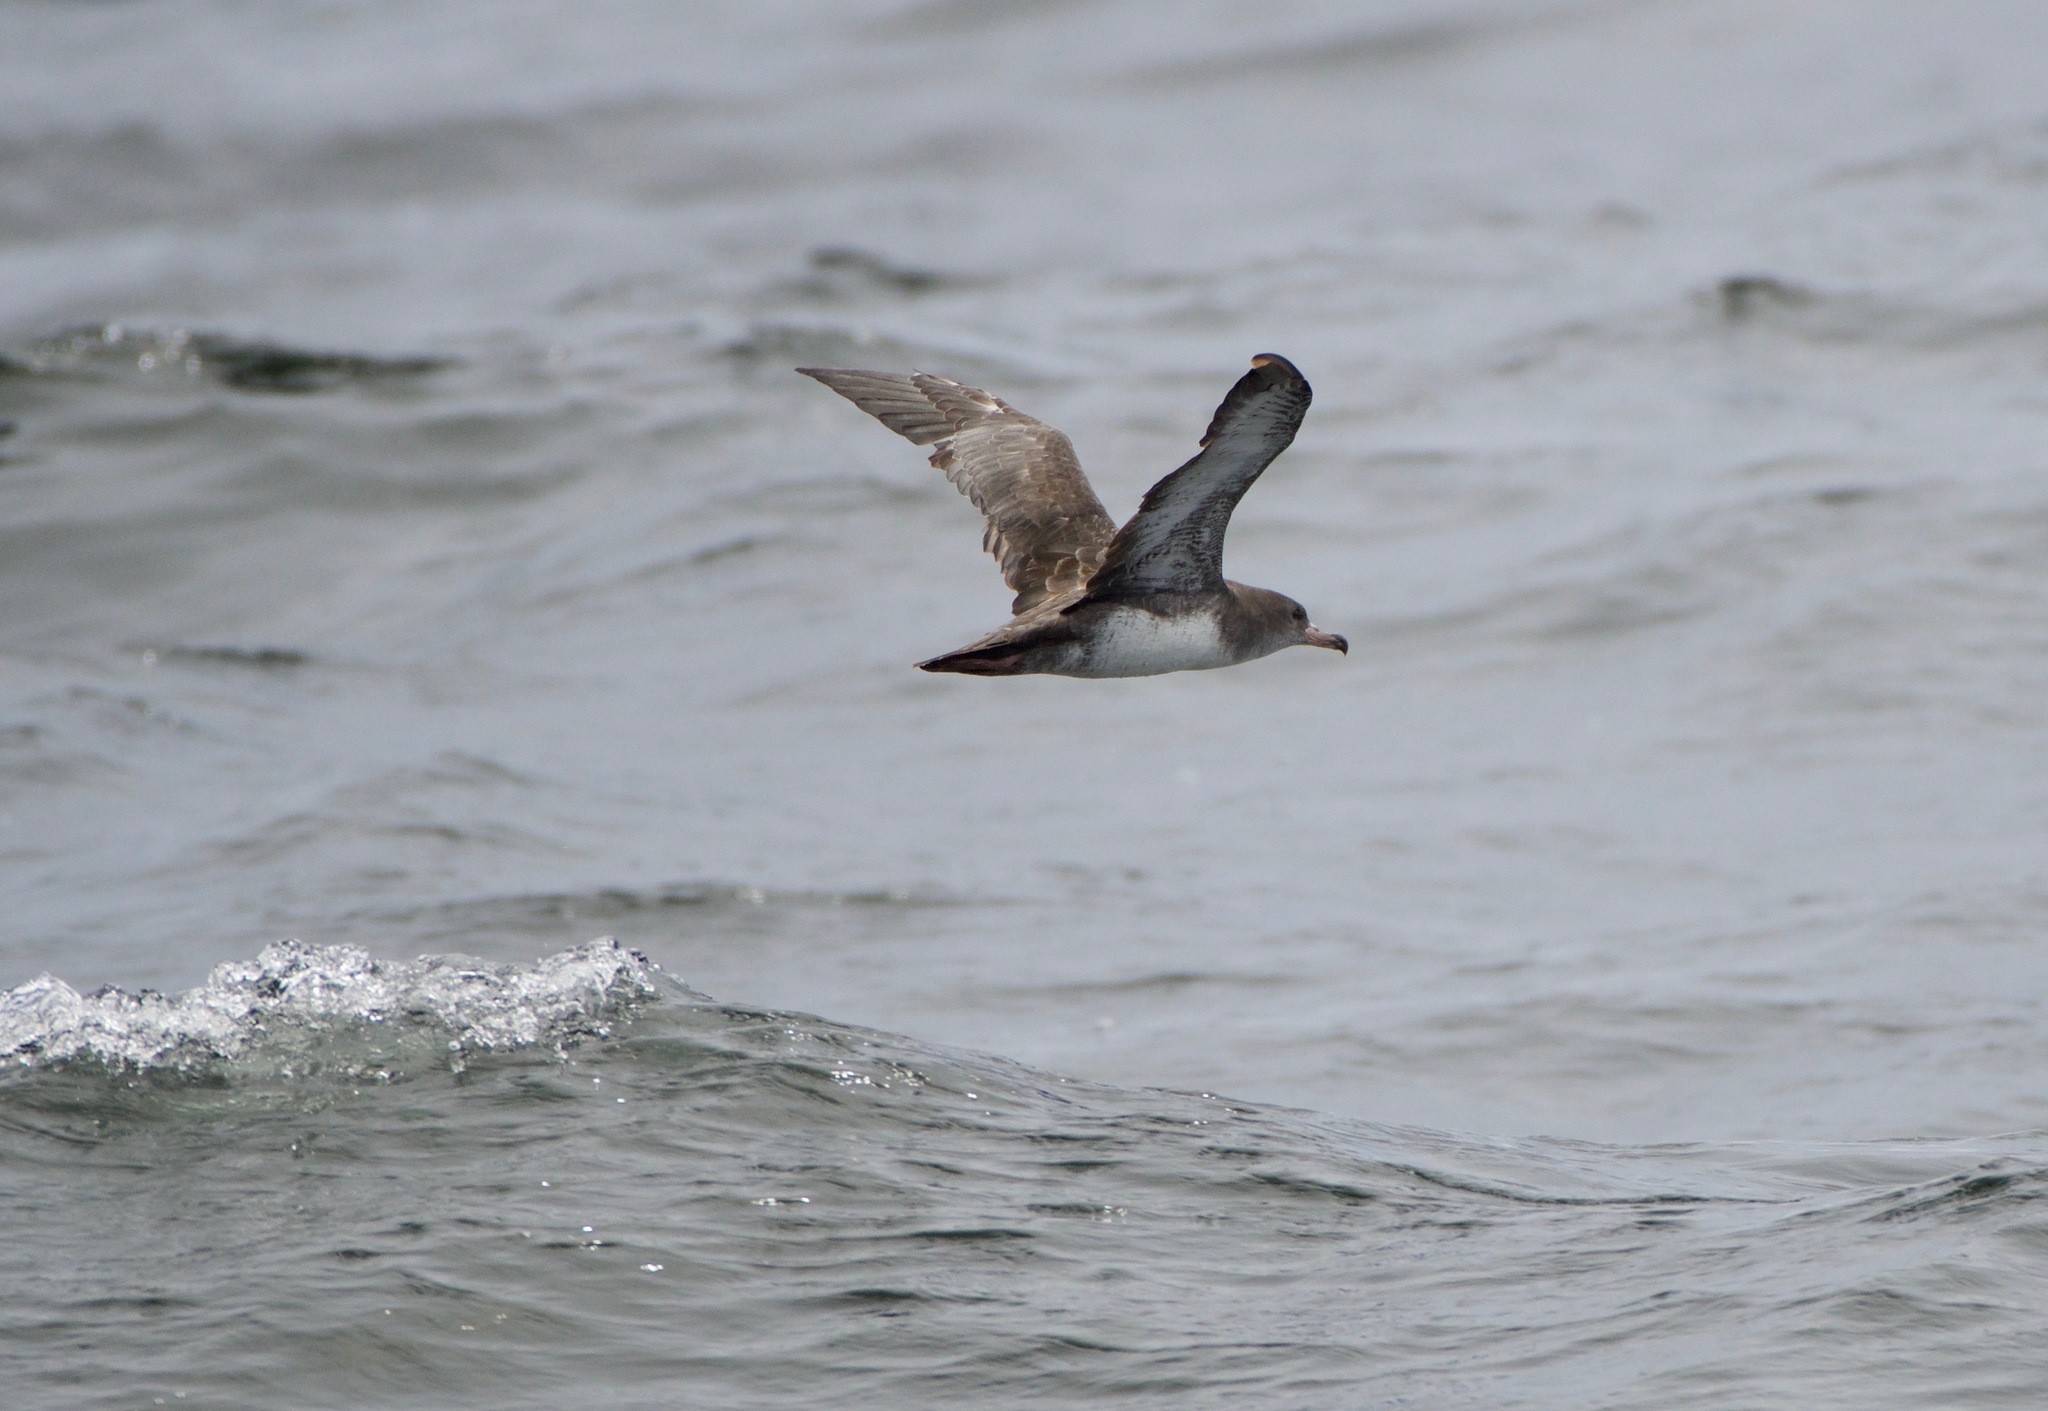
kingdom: Animalia
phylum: Chordata
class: Aves
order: Procellariiformes
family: Procellariidae
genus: Puffinus
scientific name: Puffinus creatopus
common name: Pink-footed shearwater
